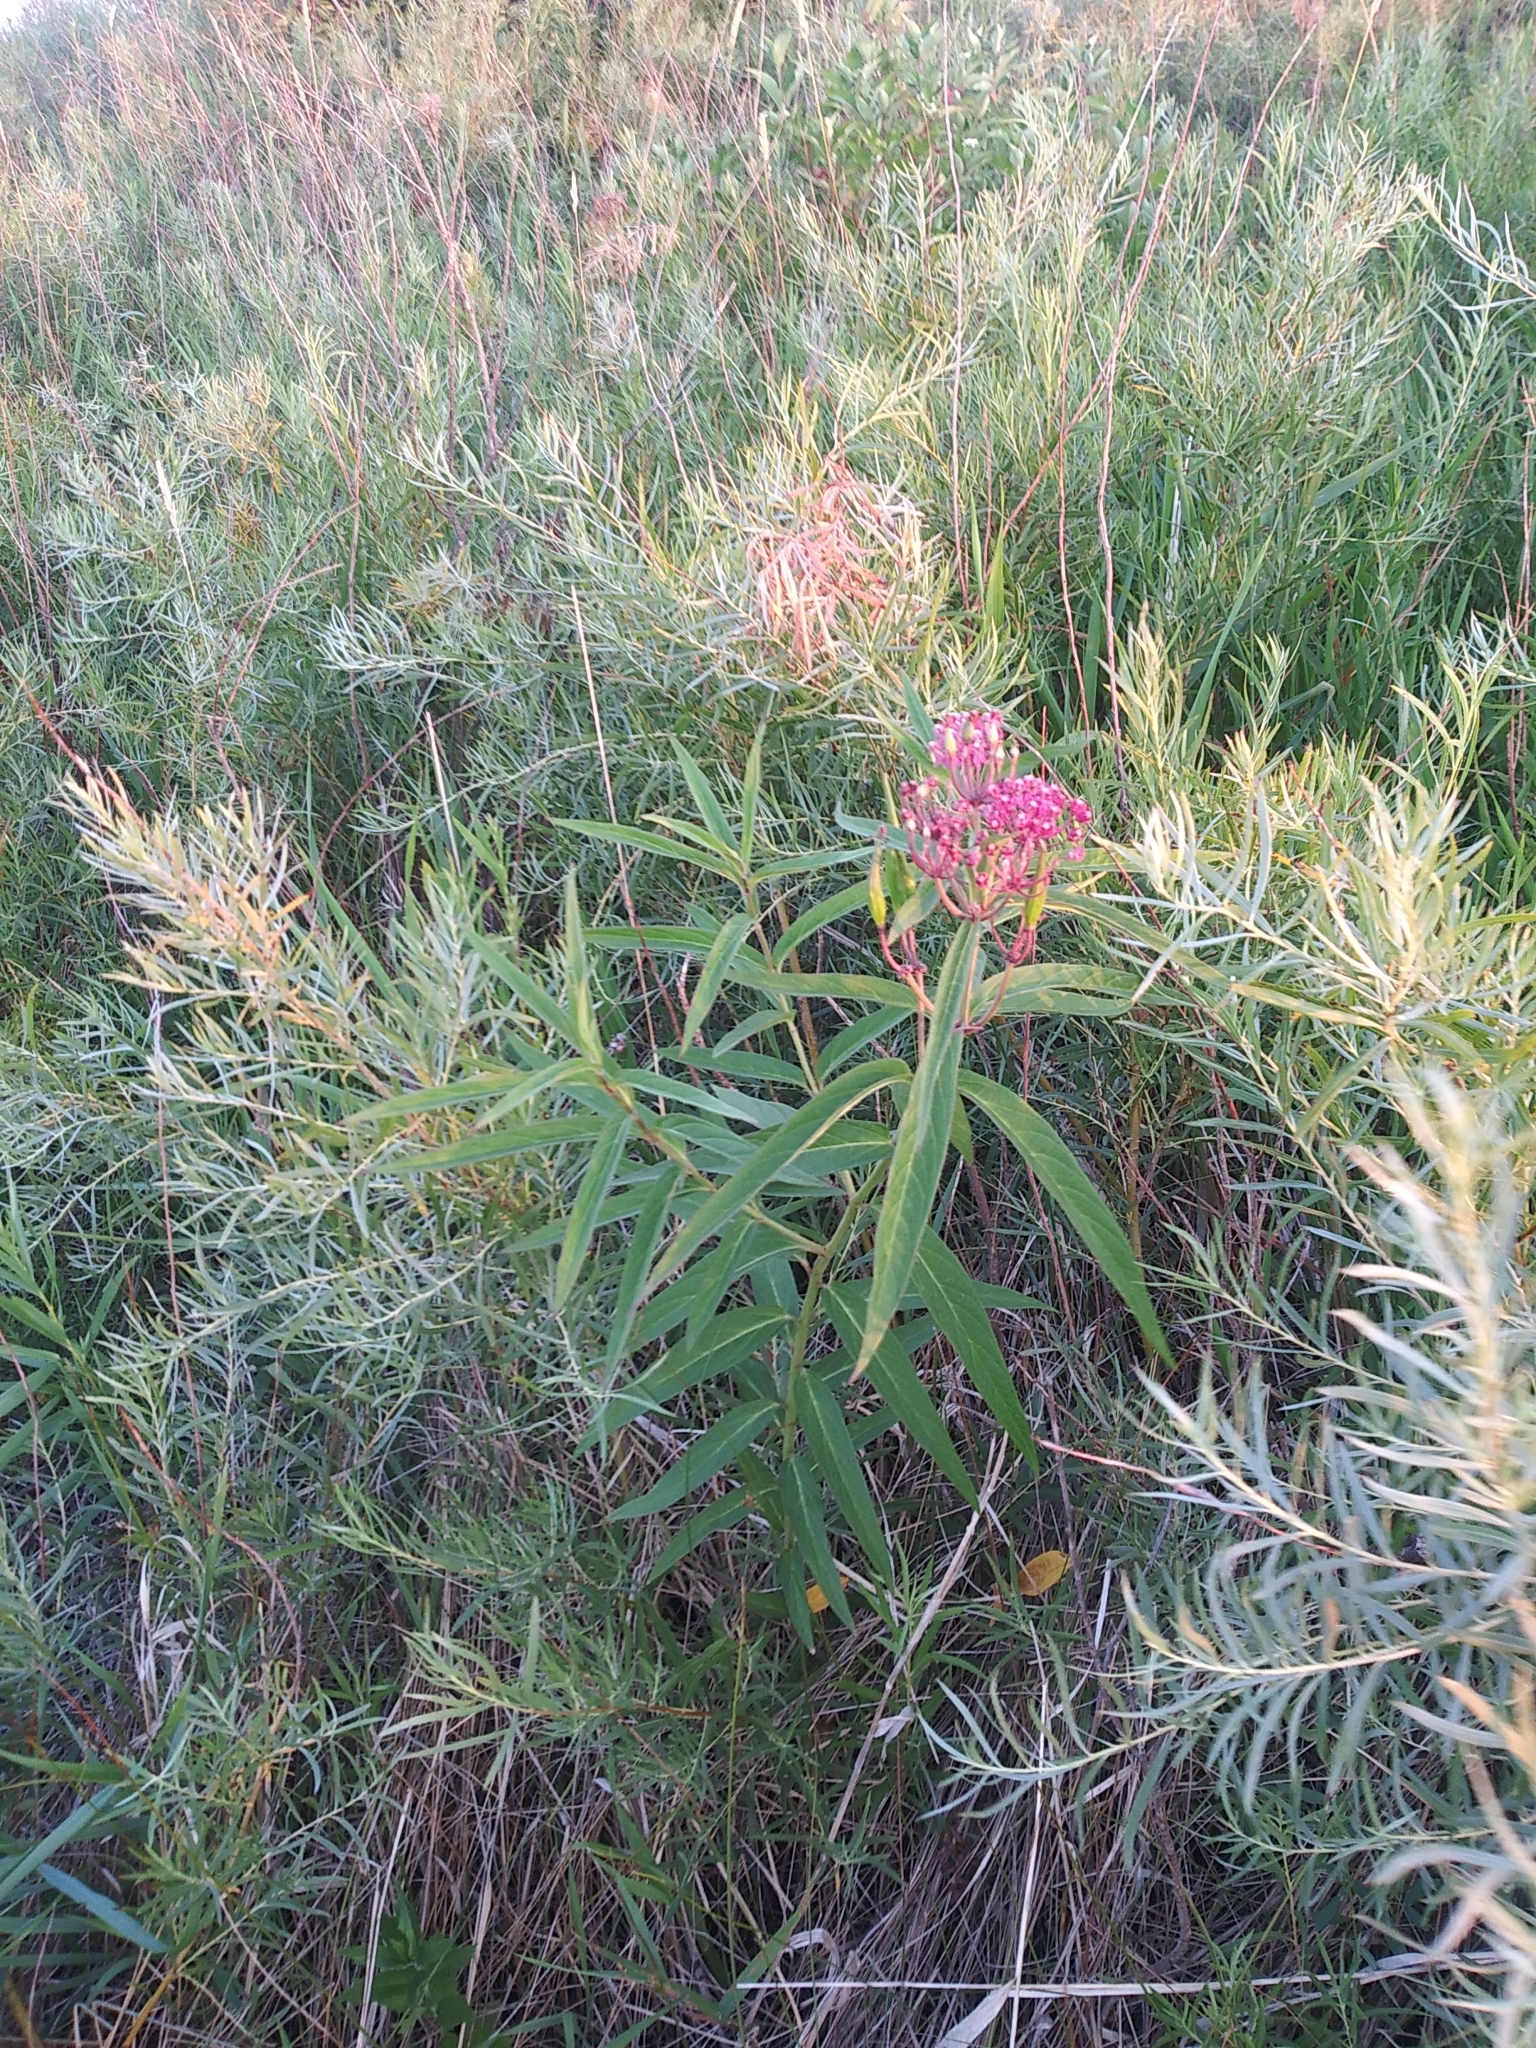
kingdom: Plantae
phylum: Tracheophyta
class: Magnoliopsida
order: Gentianales
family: Apocynaceae
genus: Asclepias
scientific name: Asclepias incarnata
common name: Swamp milkweed
